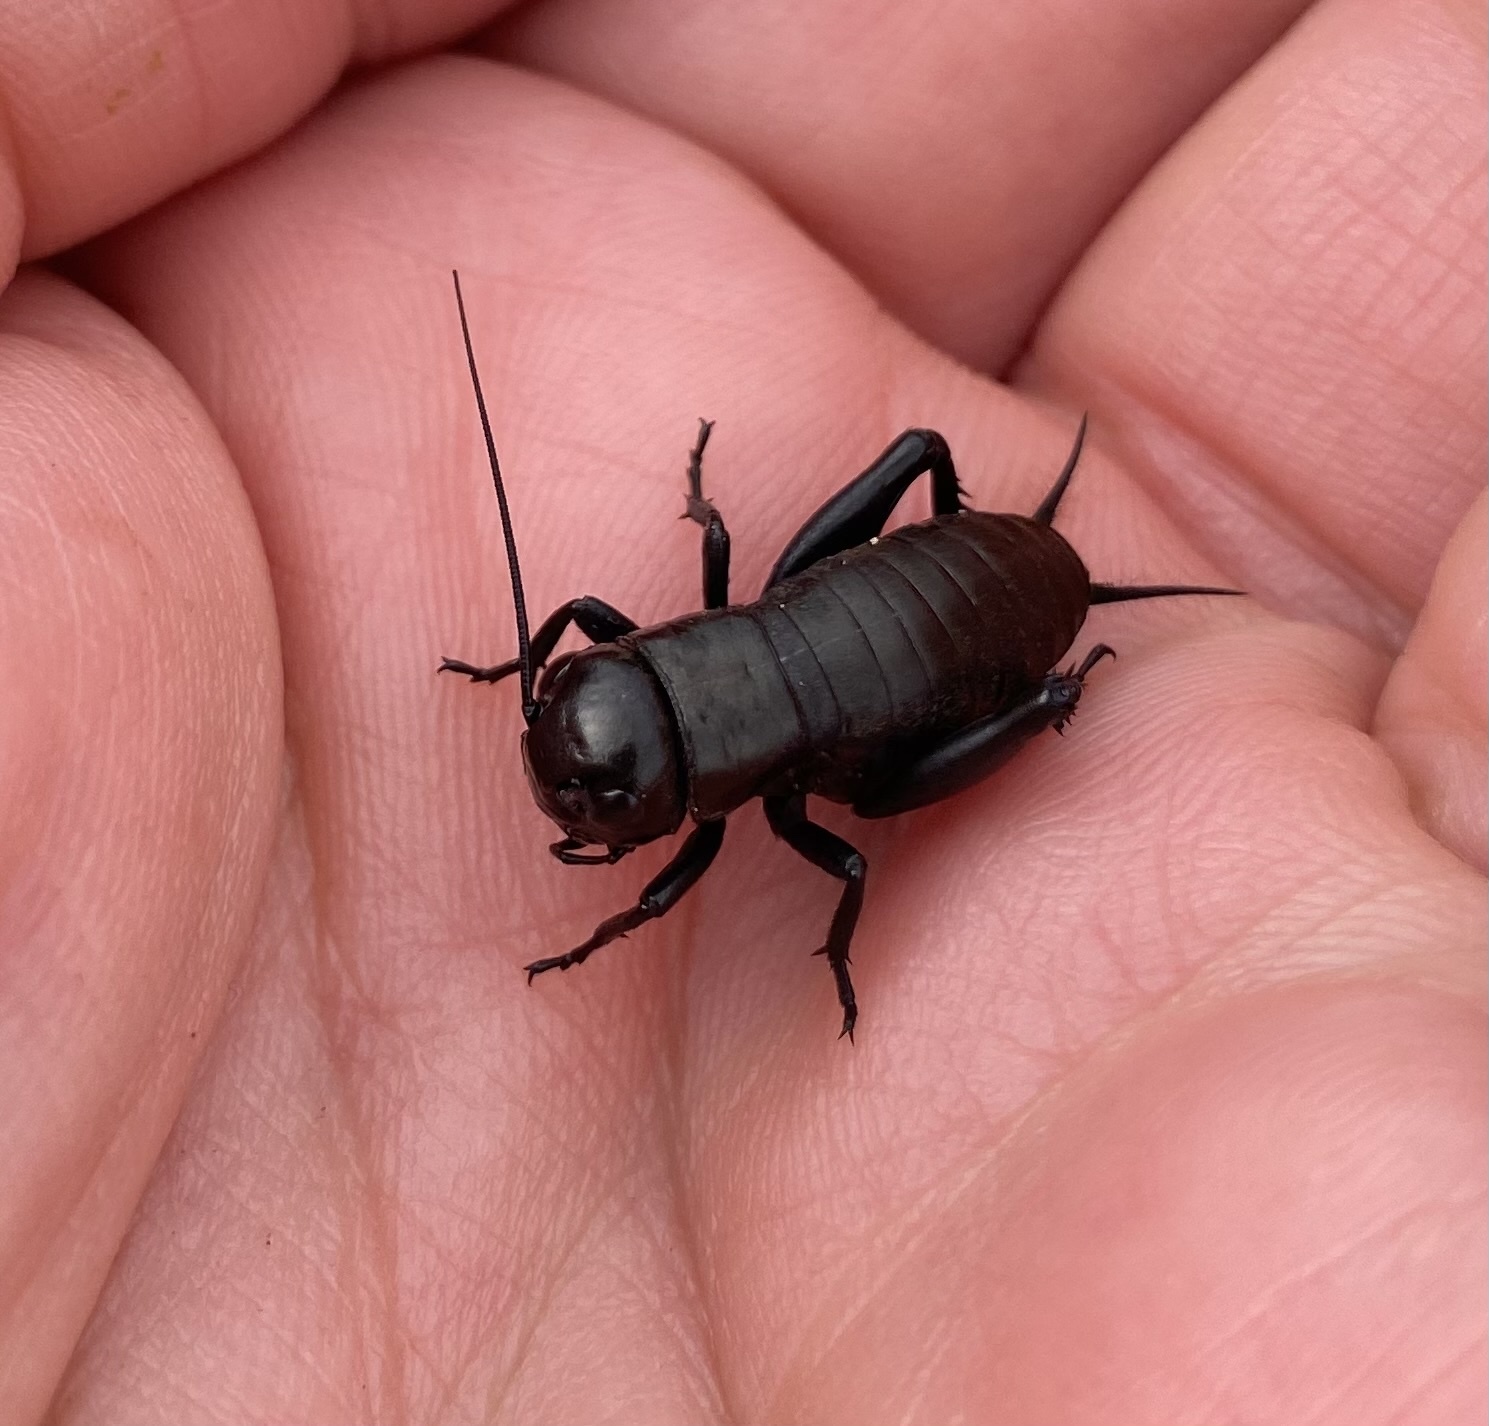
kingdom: Animalia
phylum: Arthropoda
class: Insecta
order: Orthoptera
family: Gryllidae
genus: Gryllus
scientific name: Gryllus campestris
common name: Field cricket
